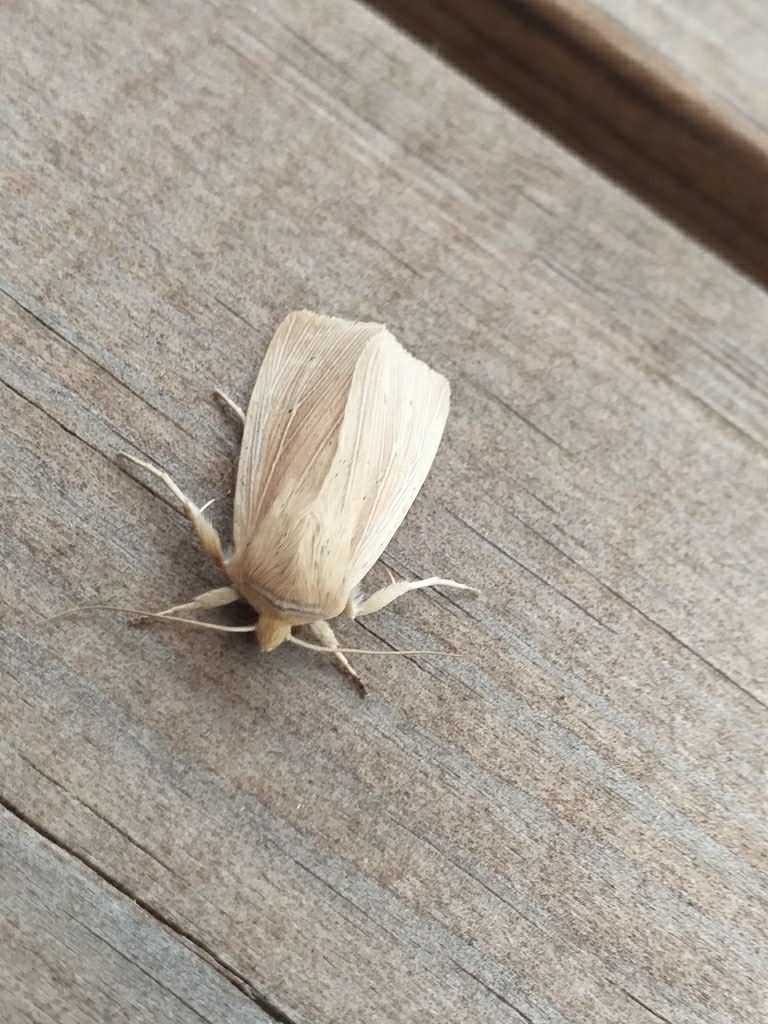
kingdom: Animalia
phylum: Arthropoda
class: Insecta
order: Lepidoptera
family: Noctuidae
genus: Mythimna
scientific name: Mythimna straminea
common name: Southern wainscot
